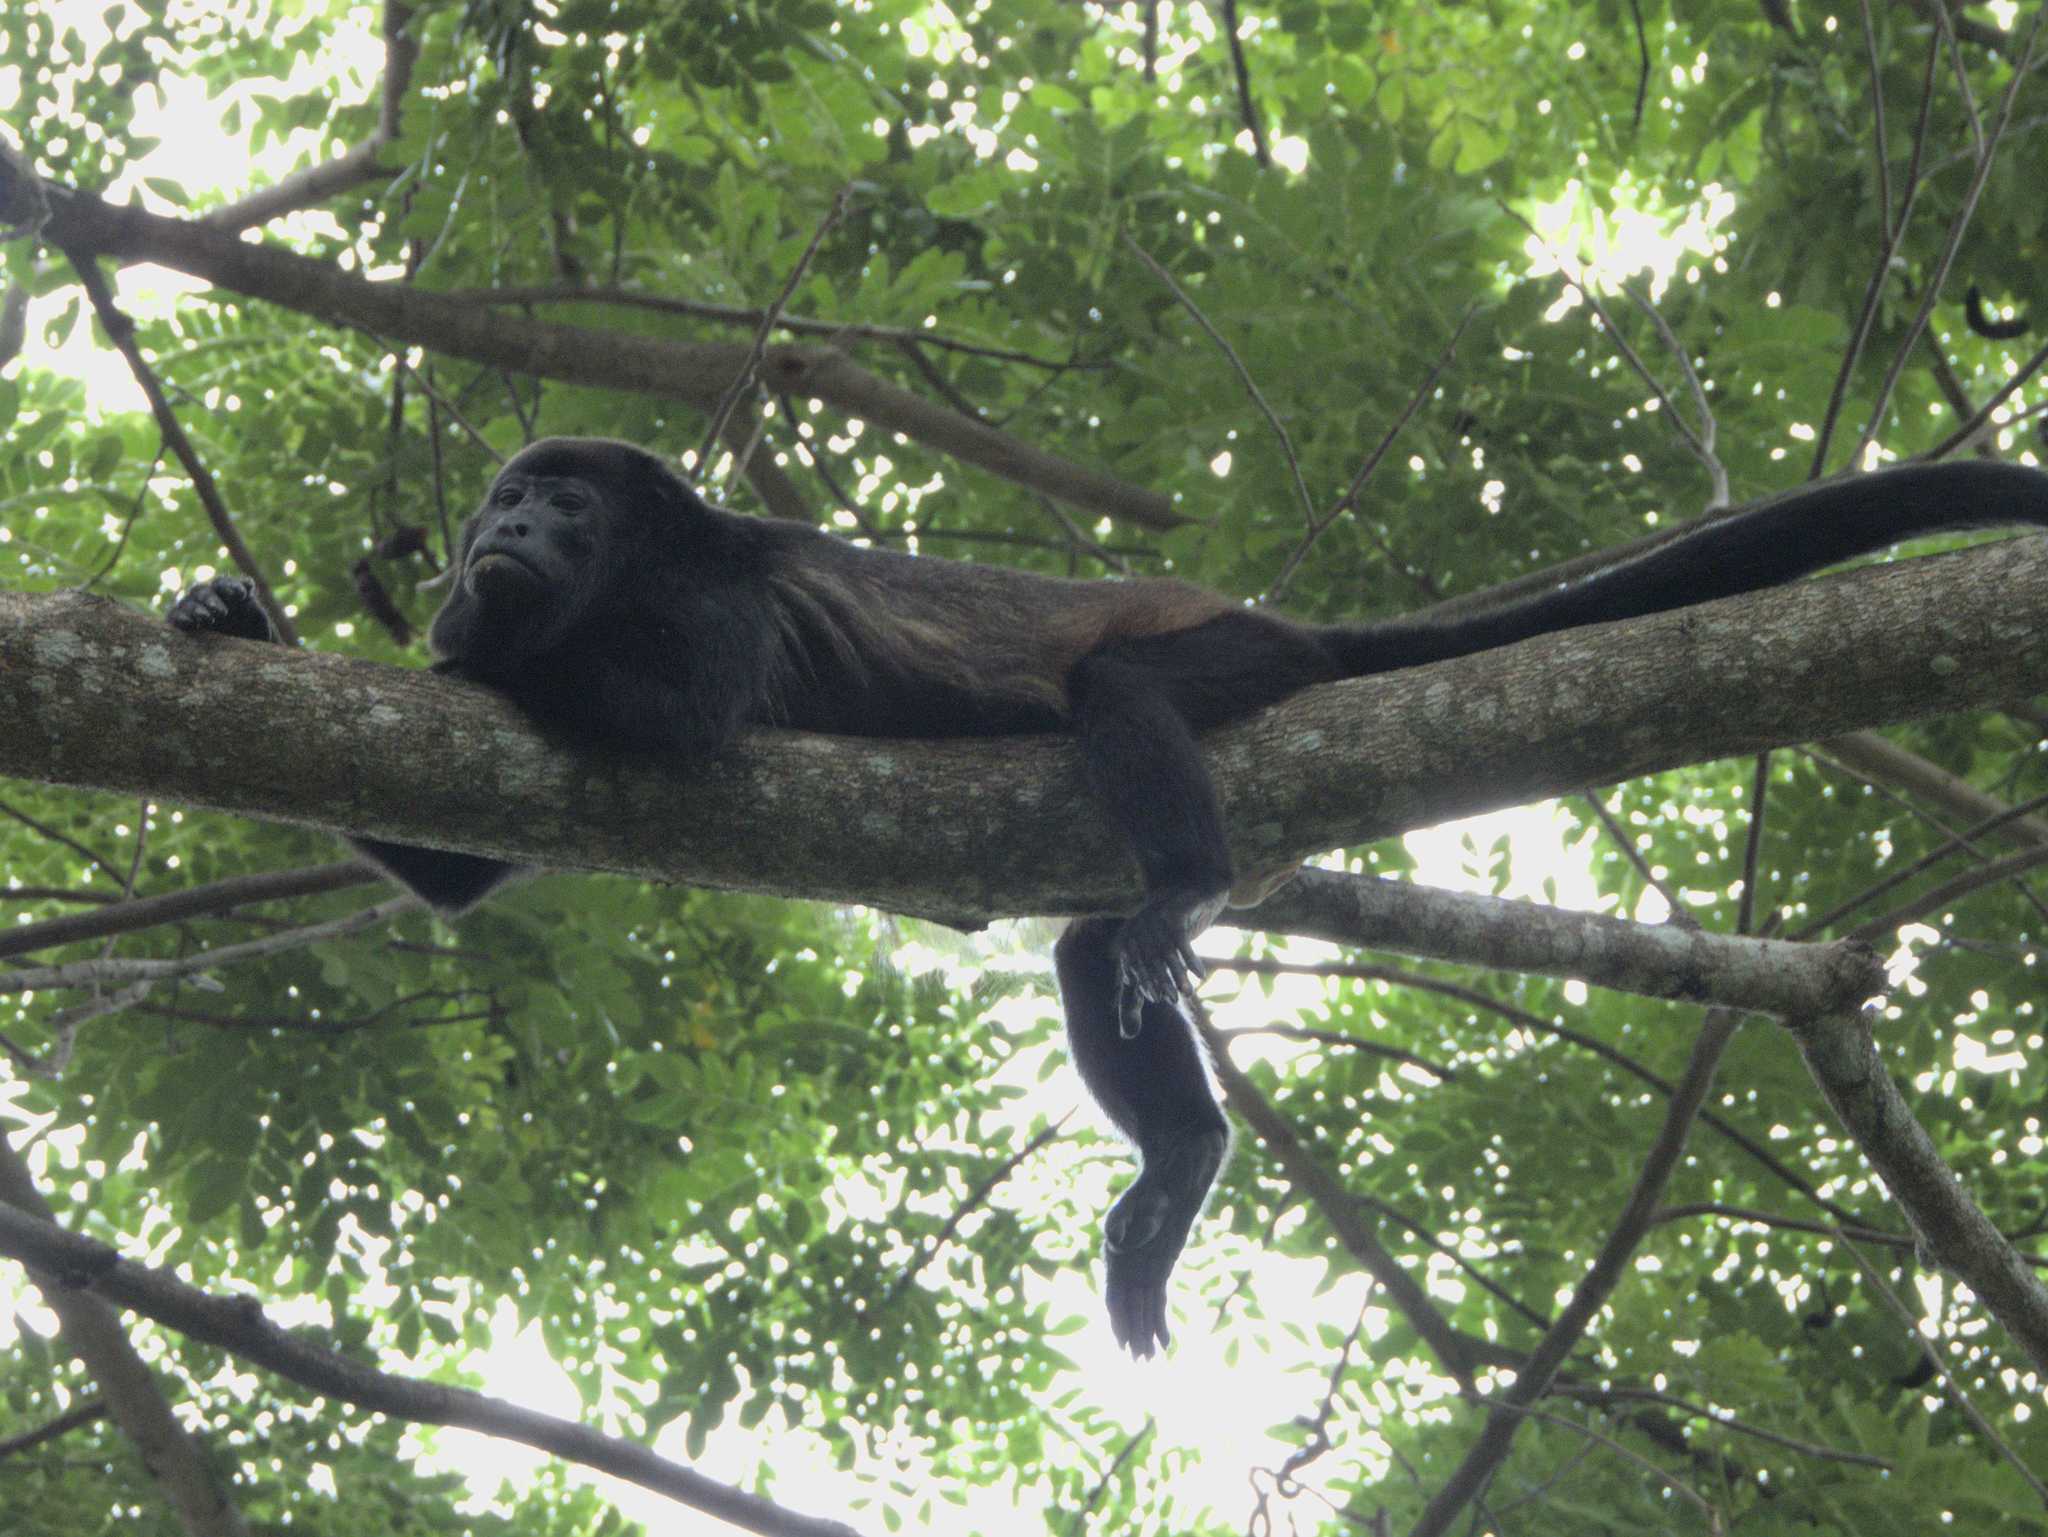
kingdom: Animalia
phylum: Chordata
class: Mammalia
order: Primates
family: Atelidae
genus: Alouatta
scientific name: Alouatta palliata
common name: Mantled howler
